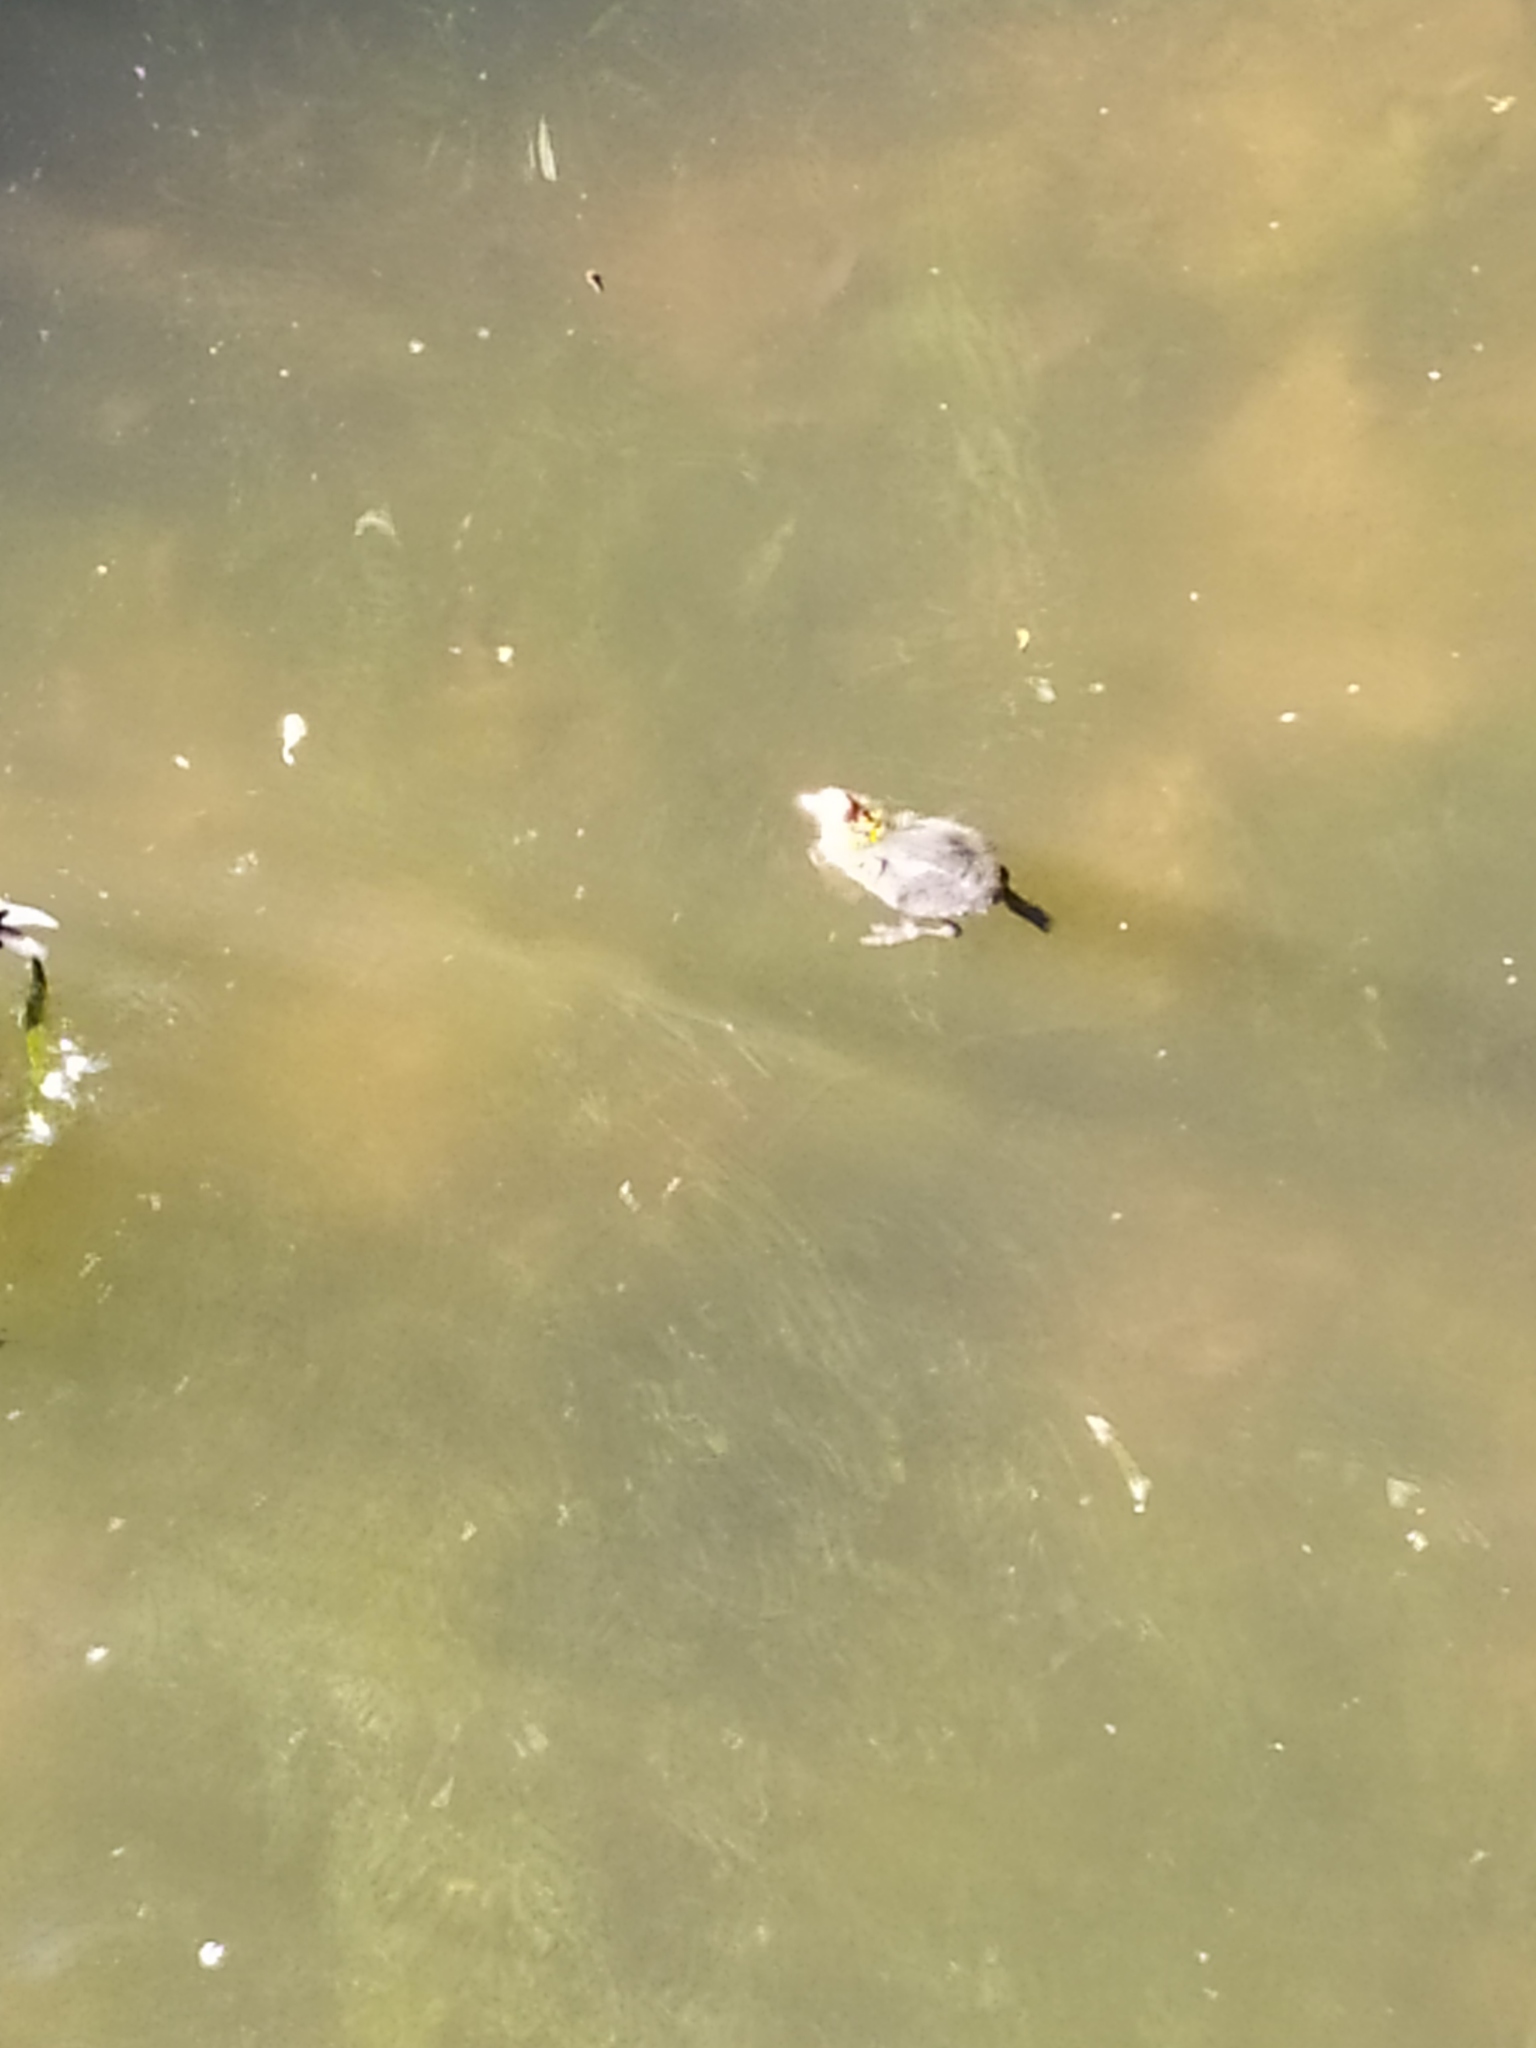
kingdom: Animalia
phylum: Chordata
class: Aves
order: Gruiformes
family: Rallidae
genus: Fulica
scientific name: Fulica atra
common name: Eurasian coot
